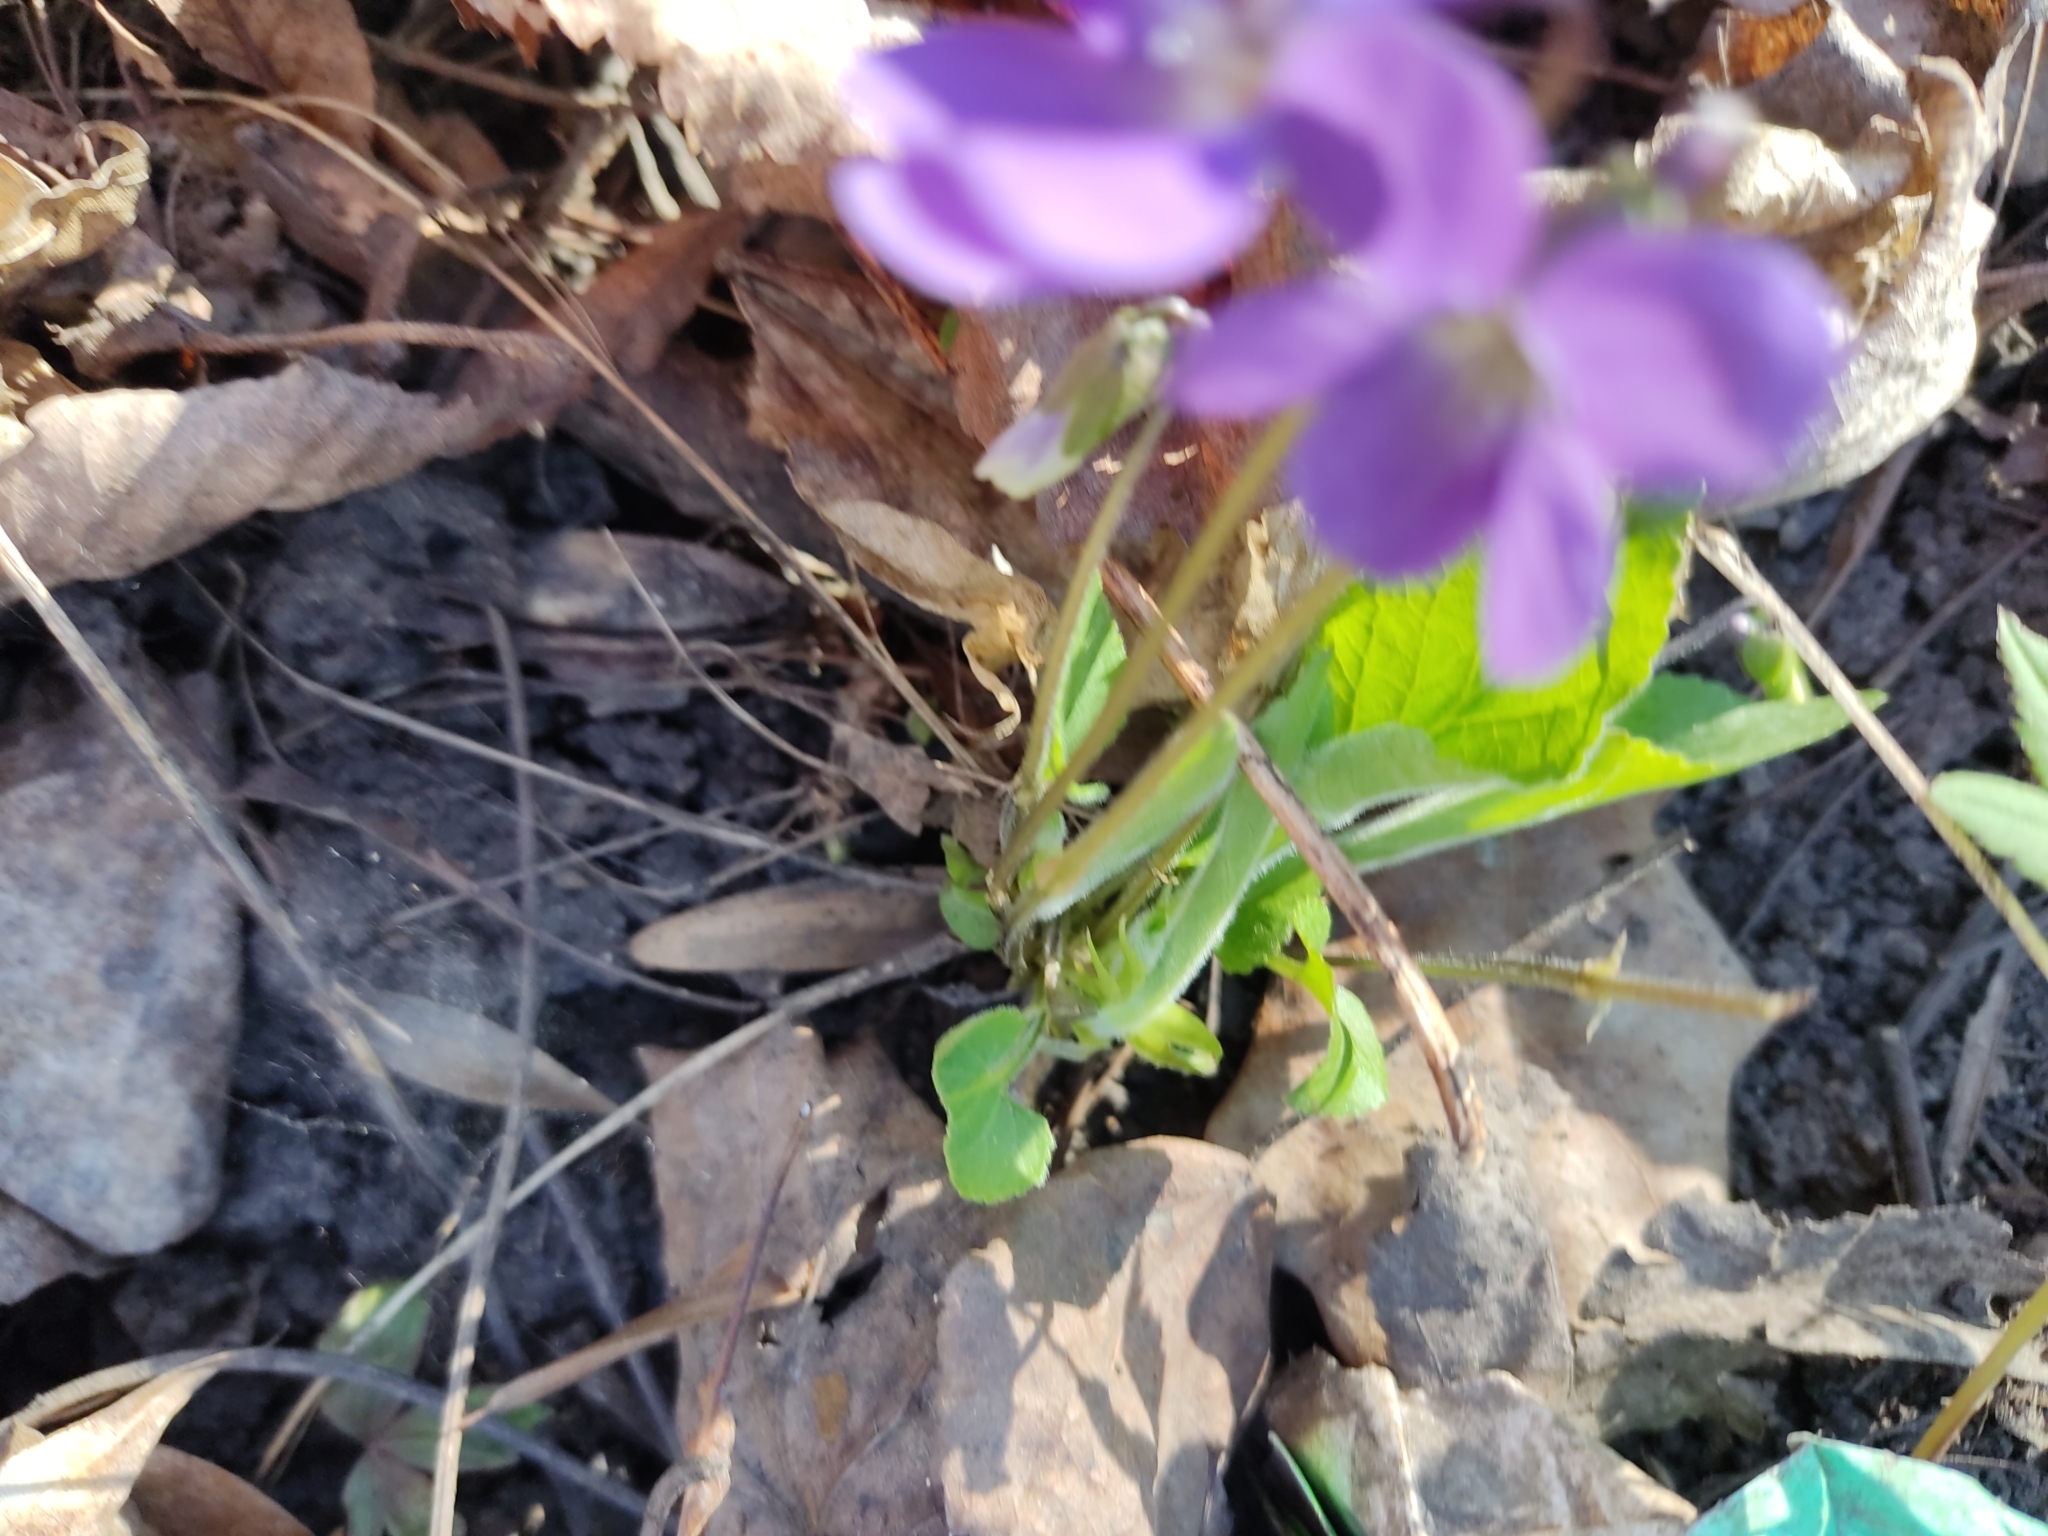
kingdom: Plantae
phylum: Tracheophyta
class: Magnoliopsida
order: Malpighiales
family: Violaceae
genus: Viola
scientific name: Viola hirta
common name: Hairy violet
